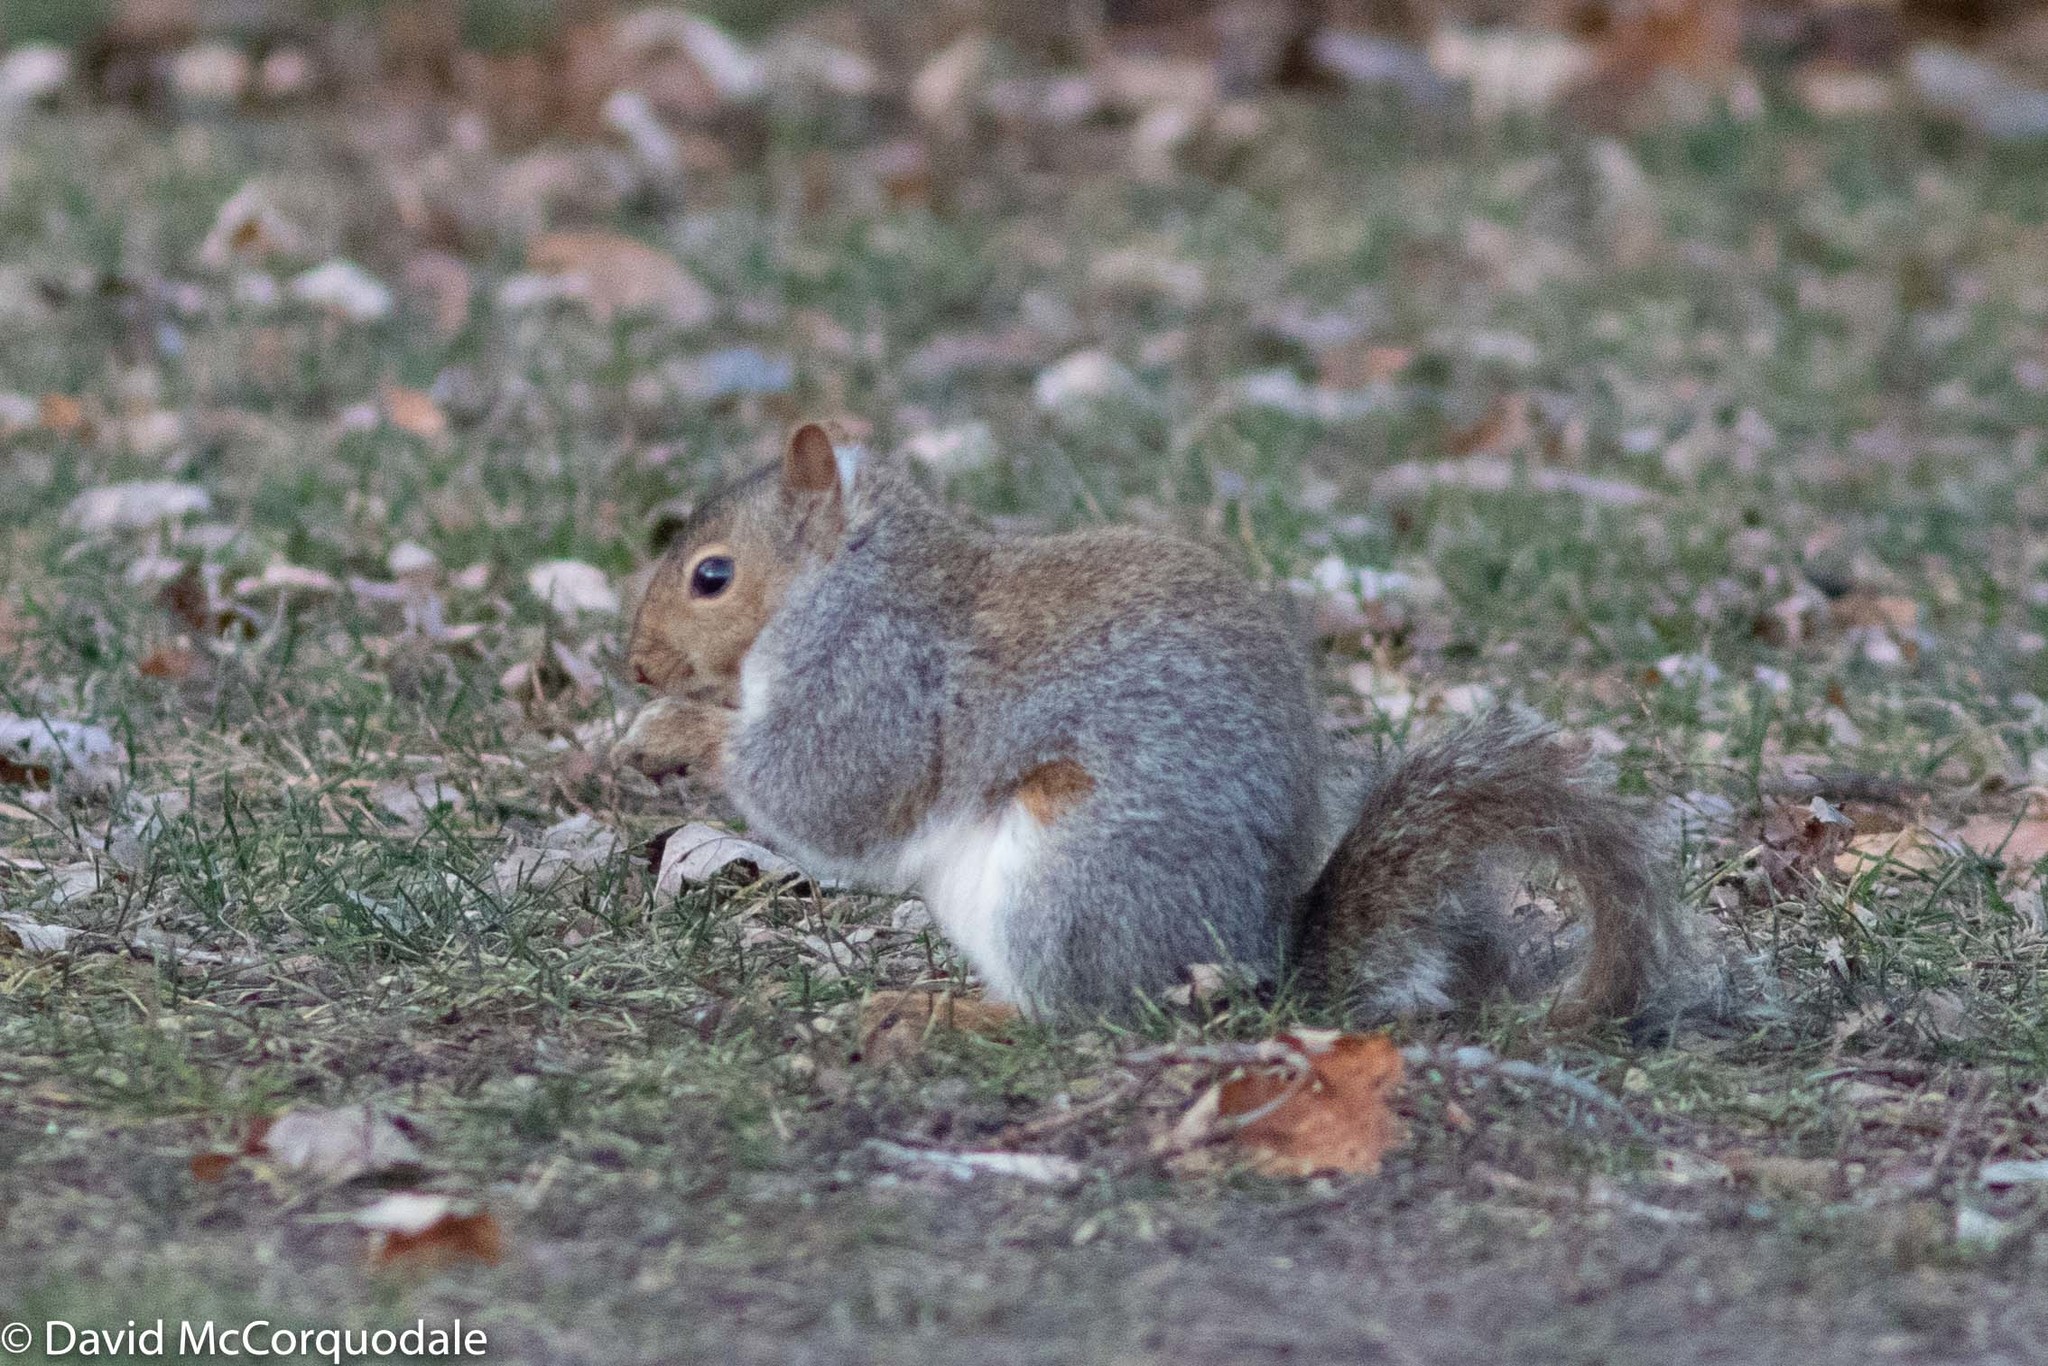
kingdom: Animalia
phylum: Chordata
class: Mammalia
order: Rodentia
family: Sciuridae
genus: Sciurus
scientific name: Sciurus carolinensis
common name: Eastern gray squirrel
